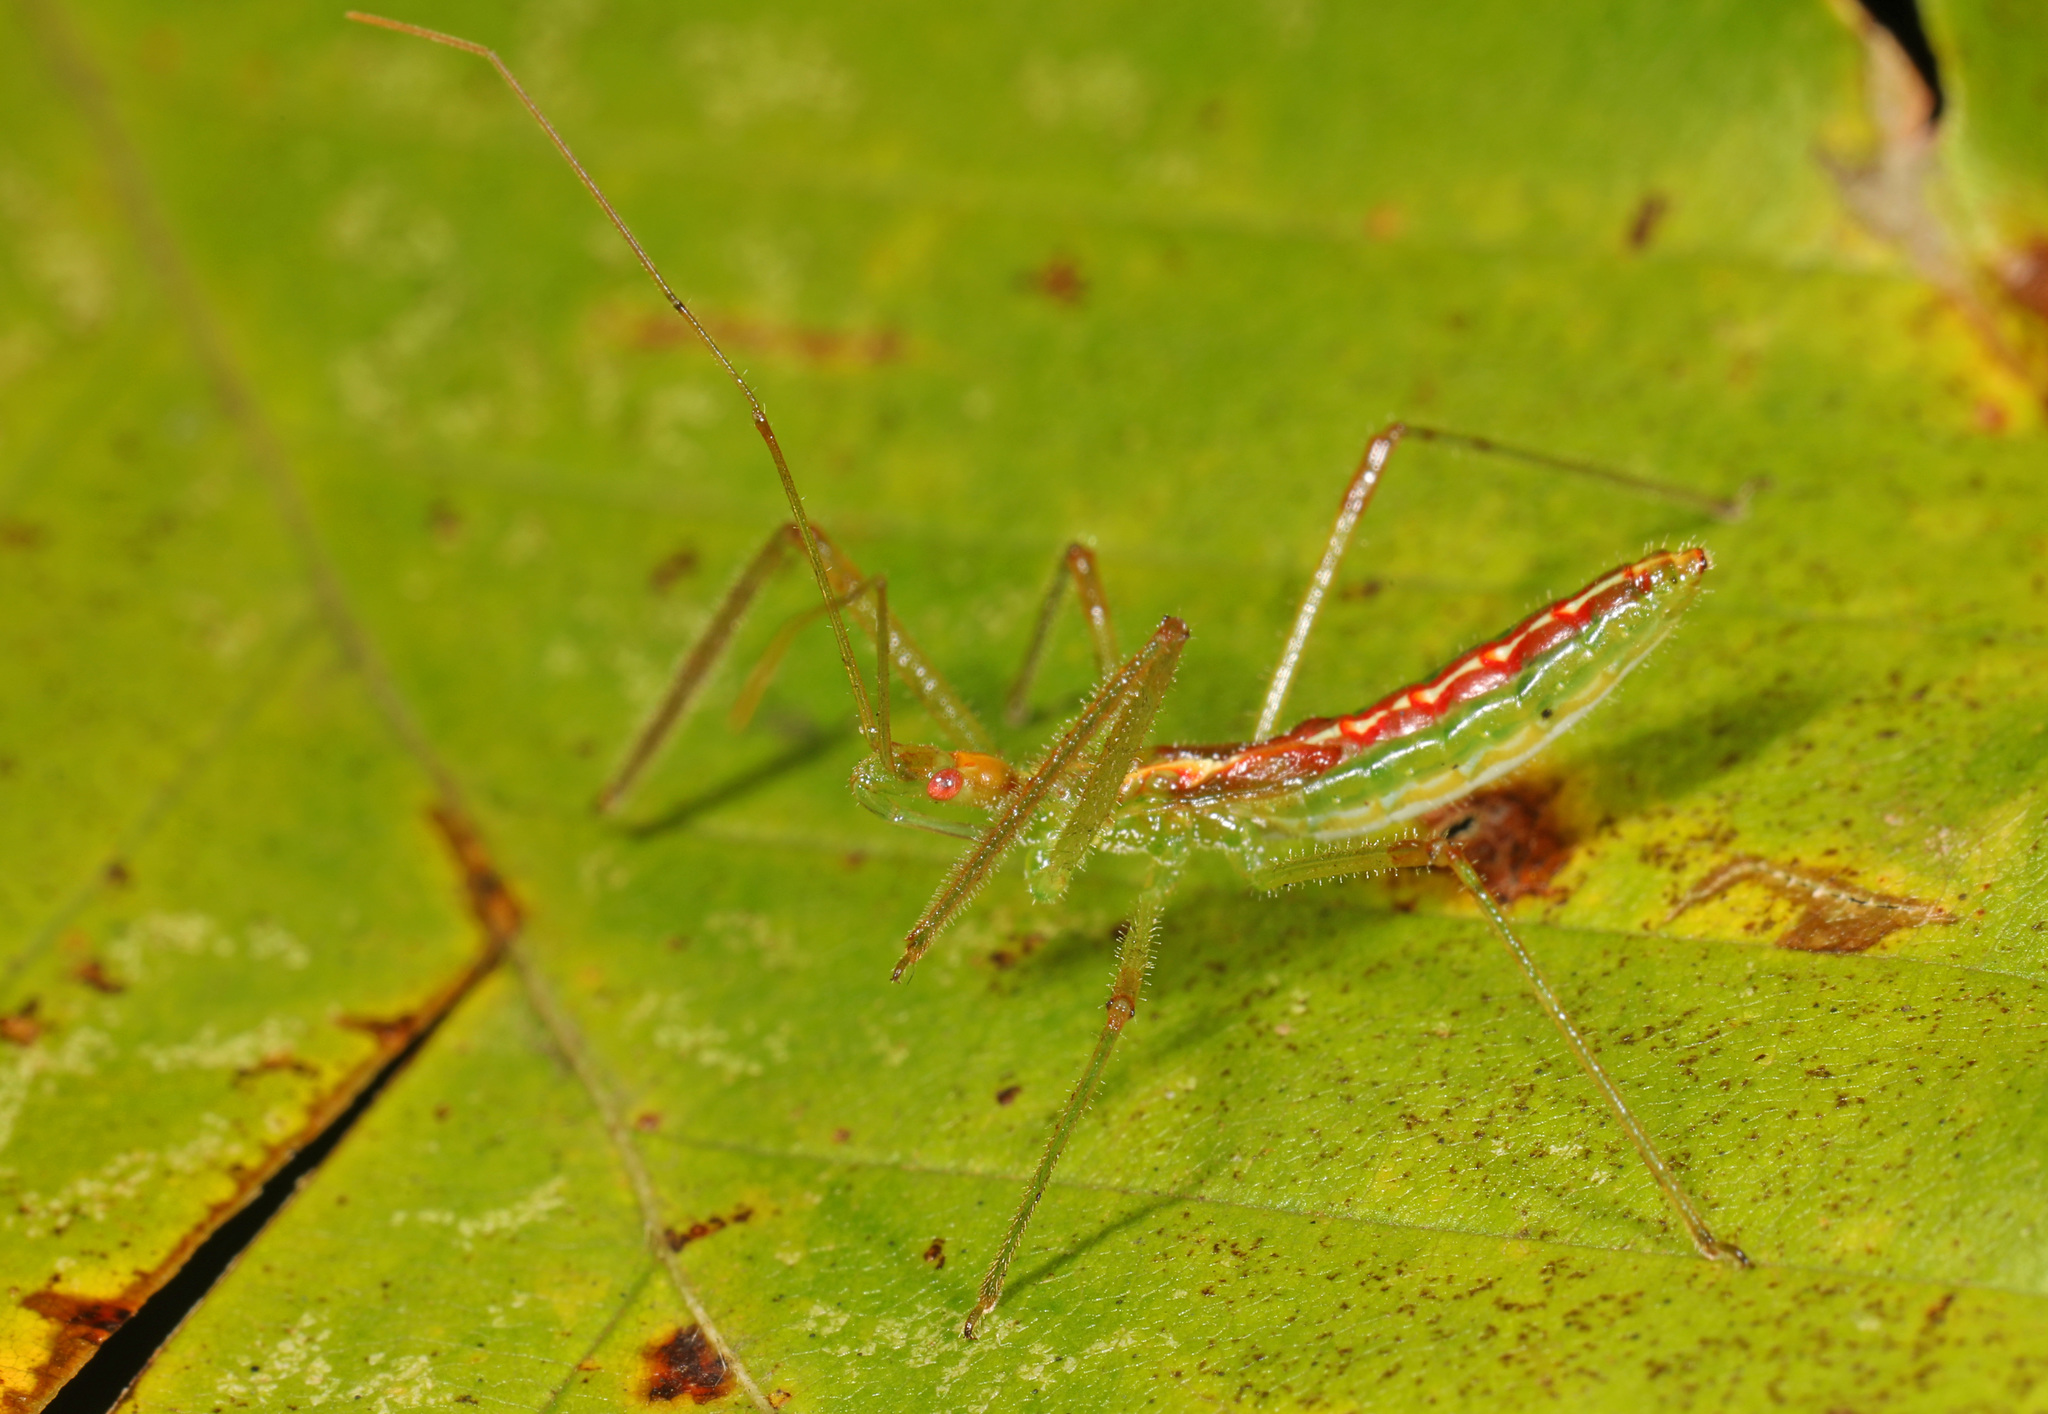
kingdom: Animalia
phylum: Arthropoda
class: Insecta
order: Hemiptera
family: Reduviidae
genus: Zelus
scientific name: Zelus luridus
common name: Pale green assassin bug
